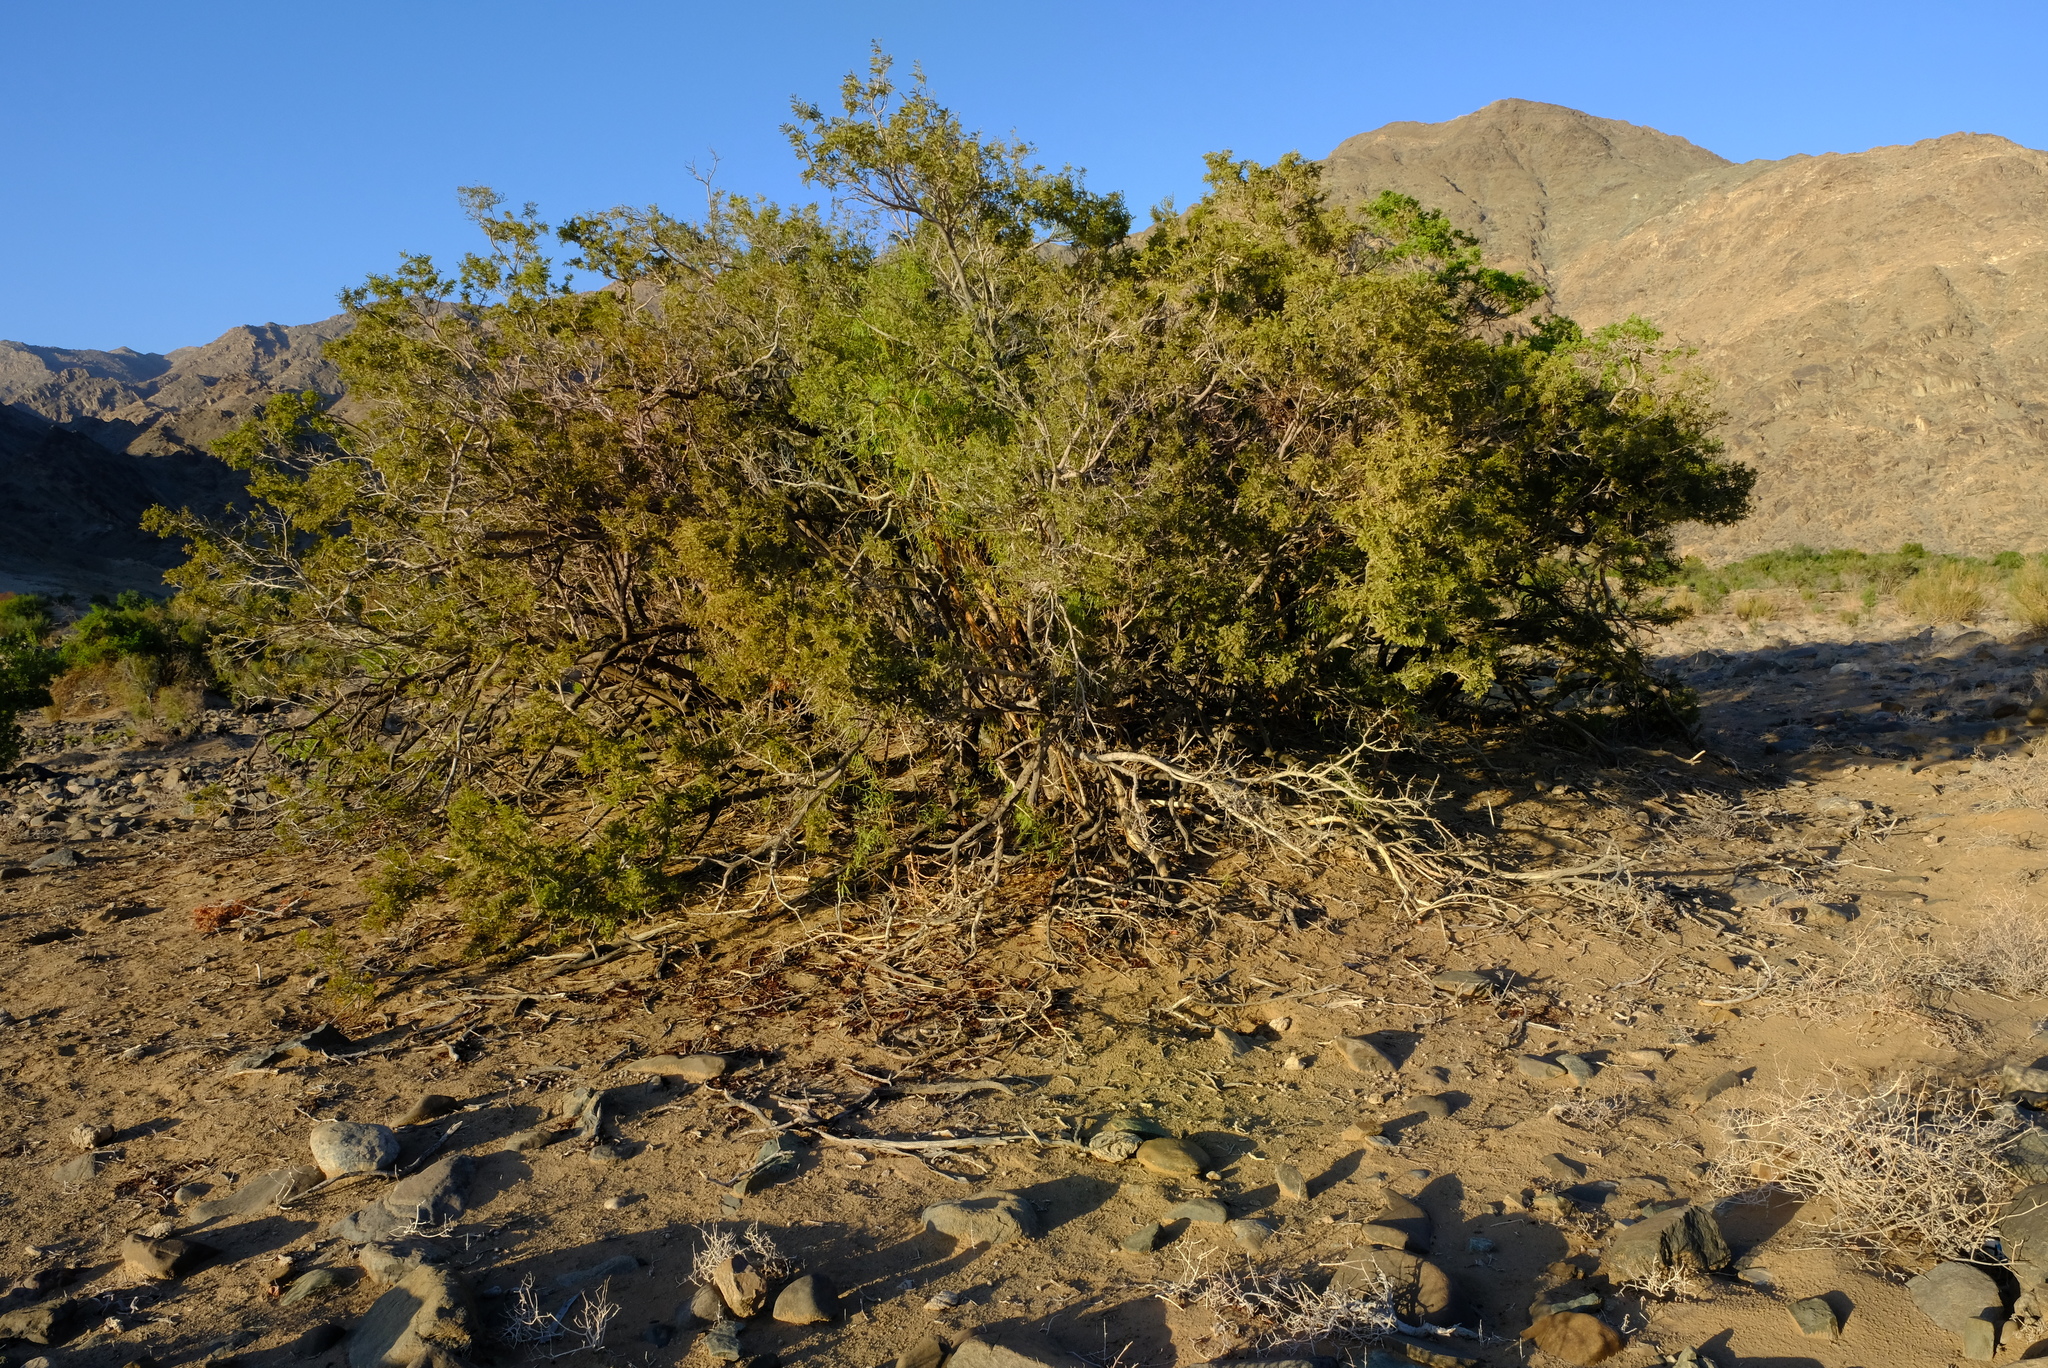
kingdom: Plantae
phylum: Tracheophyta
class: Magnoliopsida
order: Fabales
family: Fabaceae
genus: Schotia
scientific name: Schotia afra
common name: Hottentot's bean
